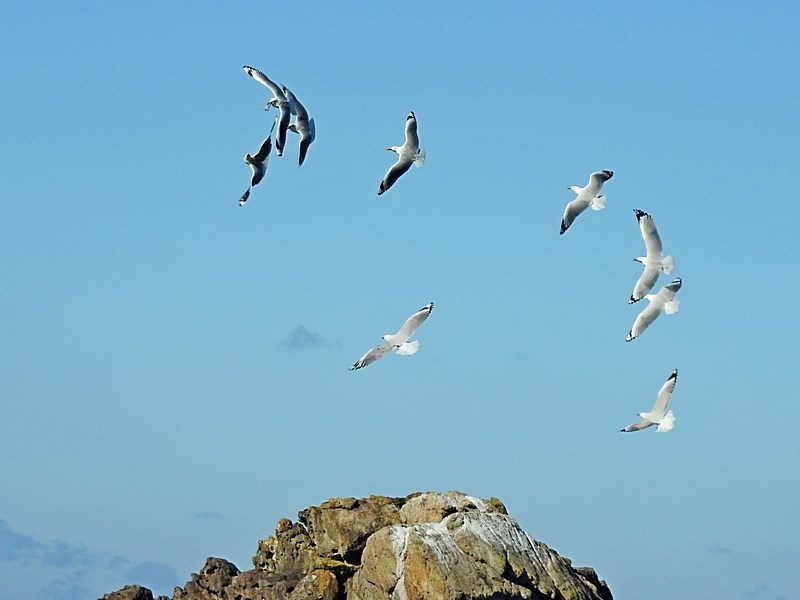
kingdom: Animalia
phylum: Chordata
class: Aves
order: Charadriiformes
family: Laridae
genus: Chroicocephalus
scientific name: Chroicocephalus novaehollandiae
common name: Silver gull
